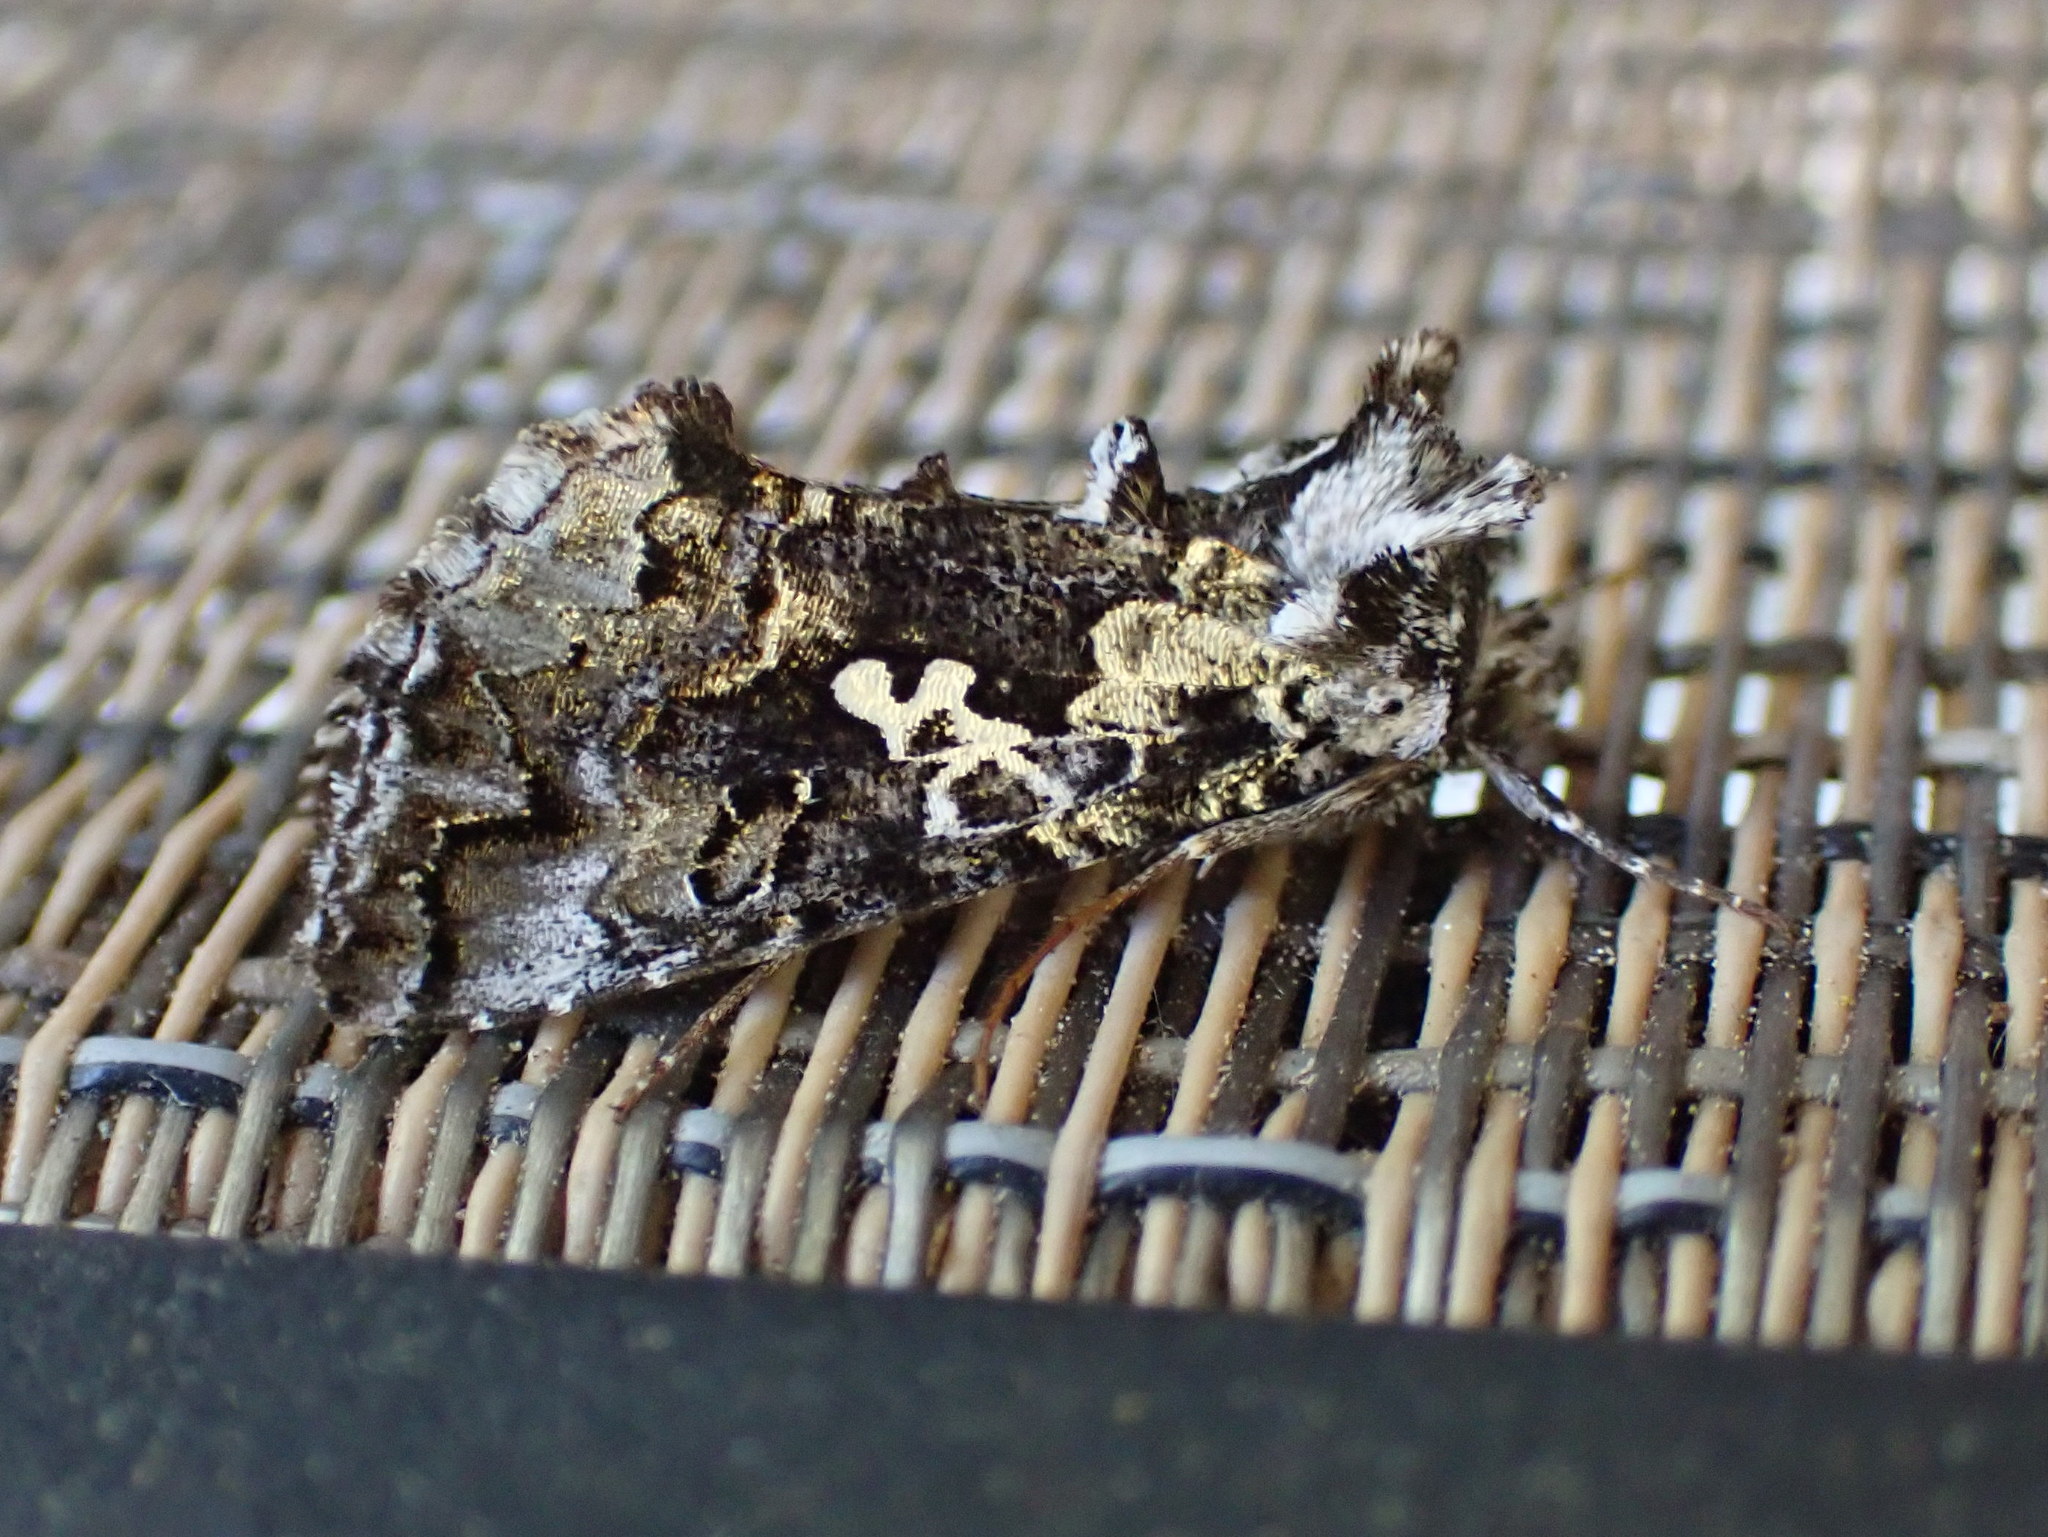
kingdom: Animalia
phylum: Arthropoda
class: Insecta
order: Lepidoptera
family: Noctuidae
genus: Syngrapha
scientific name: Syngrapha rectangula
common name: Angulated cutworm
